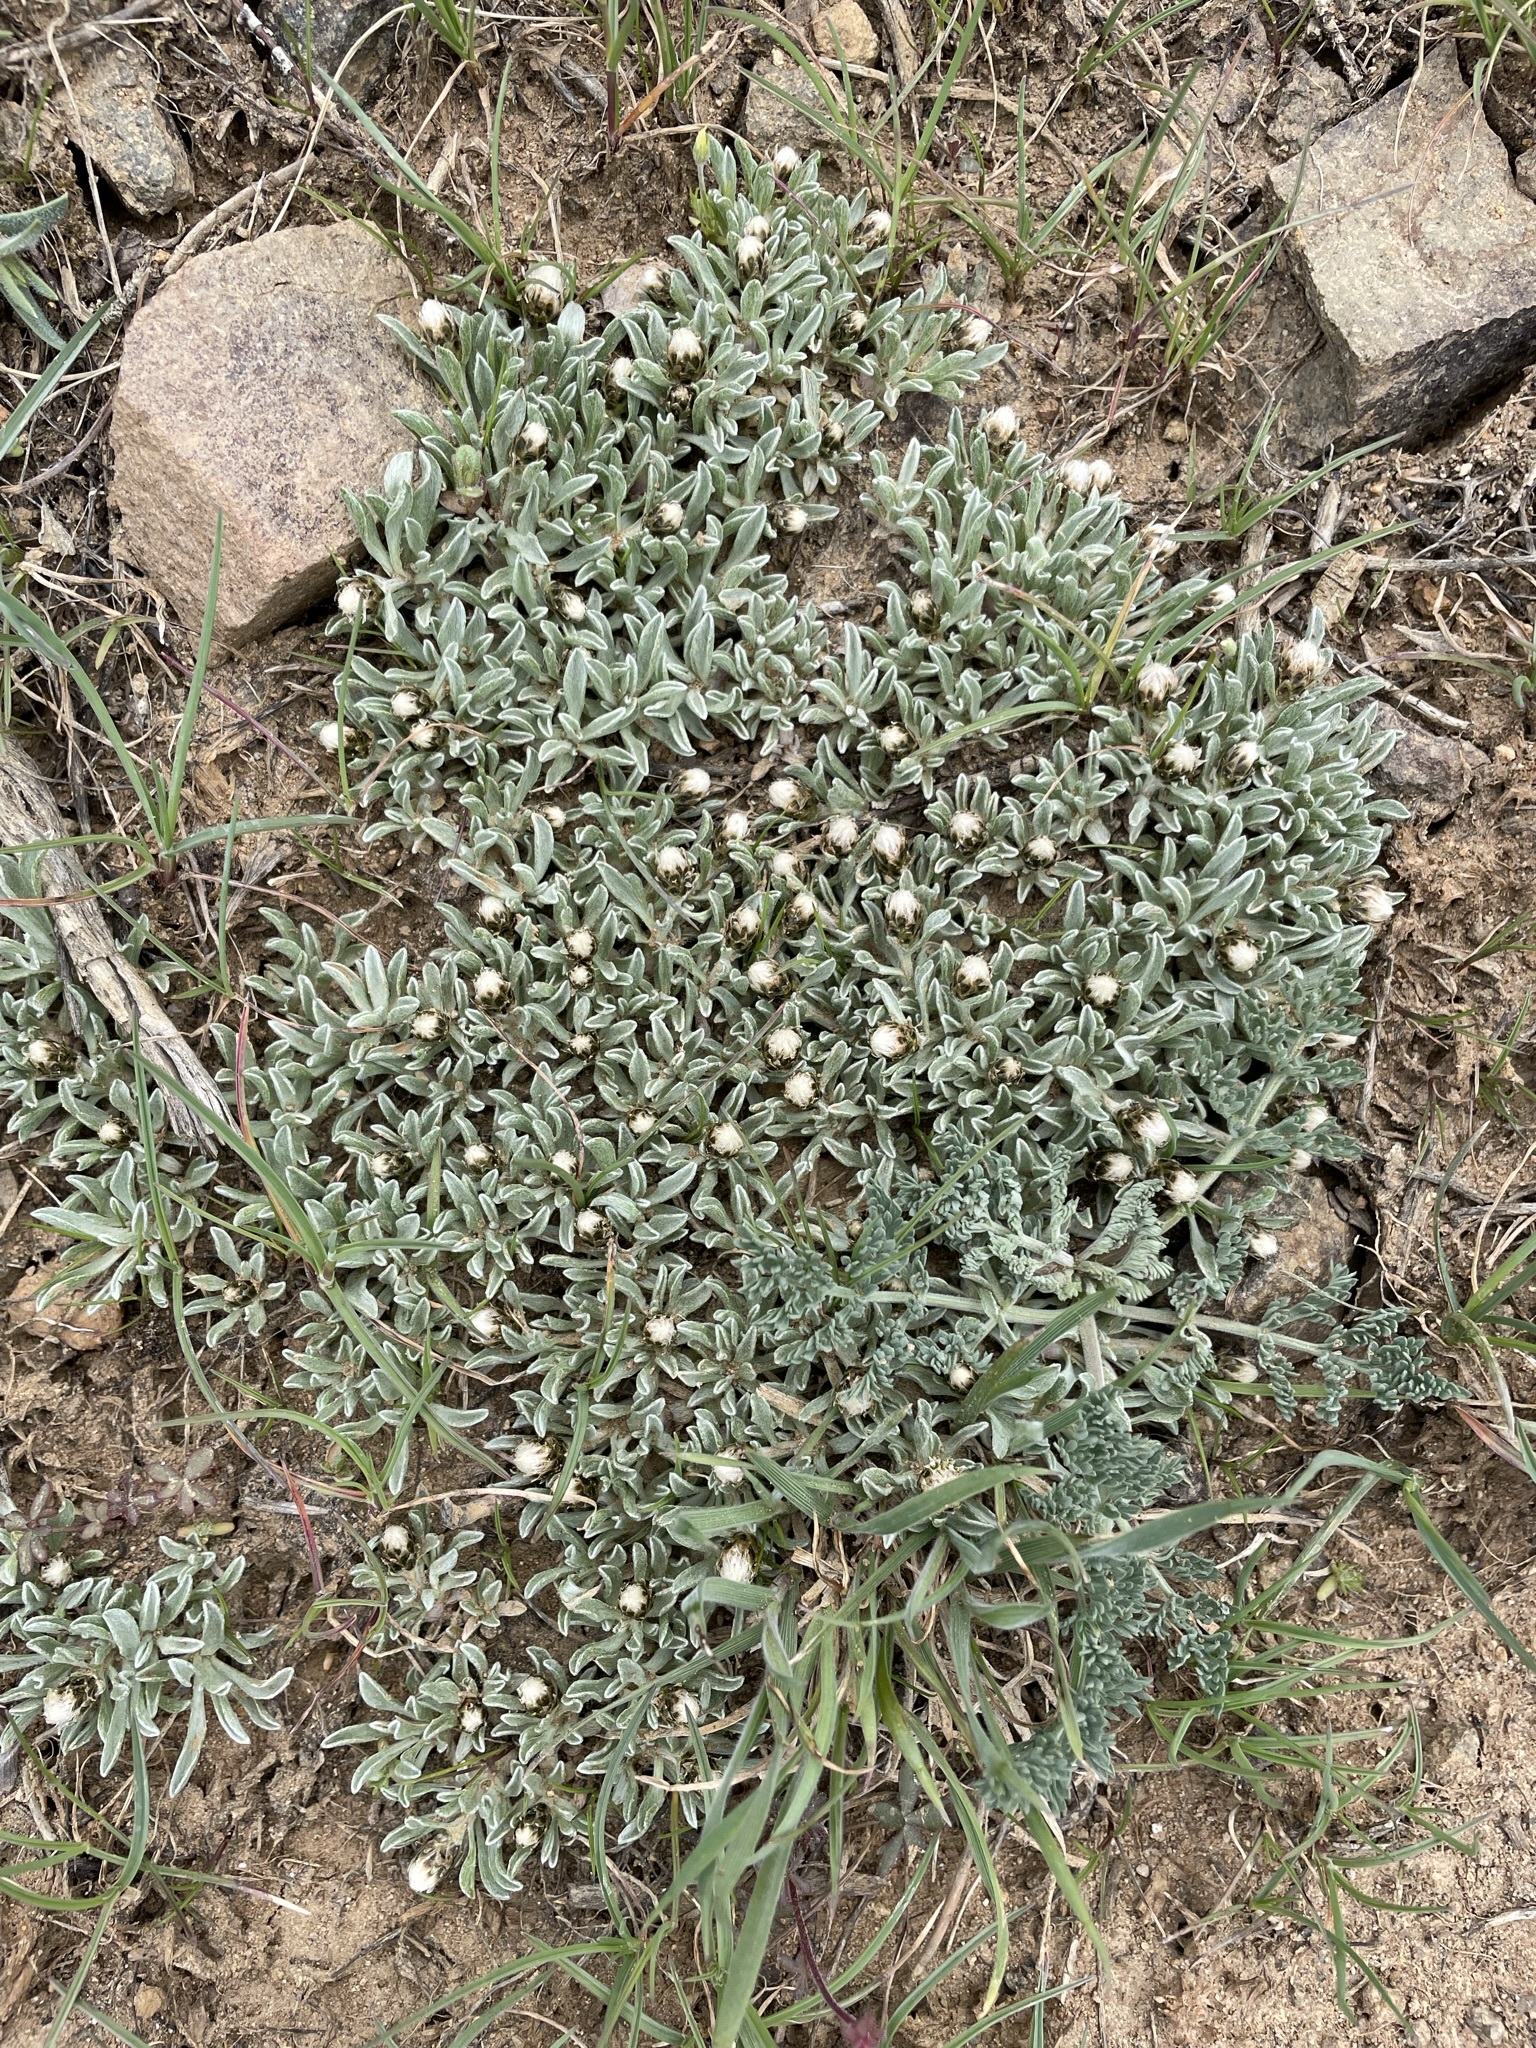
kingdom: Plantae
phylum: Tracheophyta
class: Magnoliopsida
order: Asterales
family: Asteraceae
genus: Antennaria
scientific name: Antennaria dimorpha
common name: Cushion pussytoes
